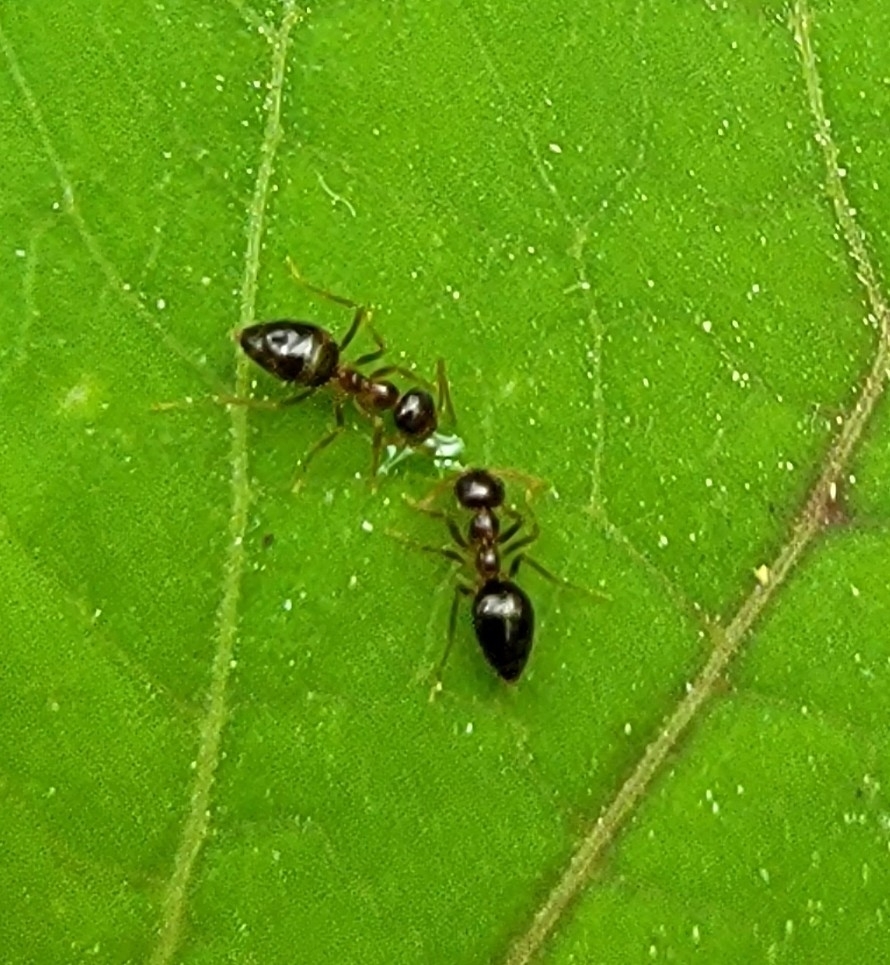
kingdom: Animalia
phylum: Arthropoda
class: Insecta
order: Hymenoptera
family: Formicidae
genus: Prenolepis
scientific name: Prenolepis imparis
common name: Small honey ant
